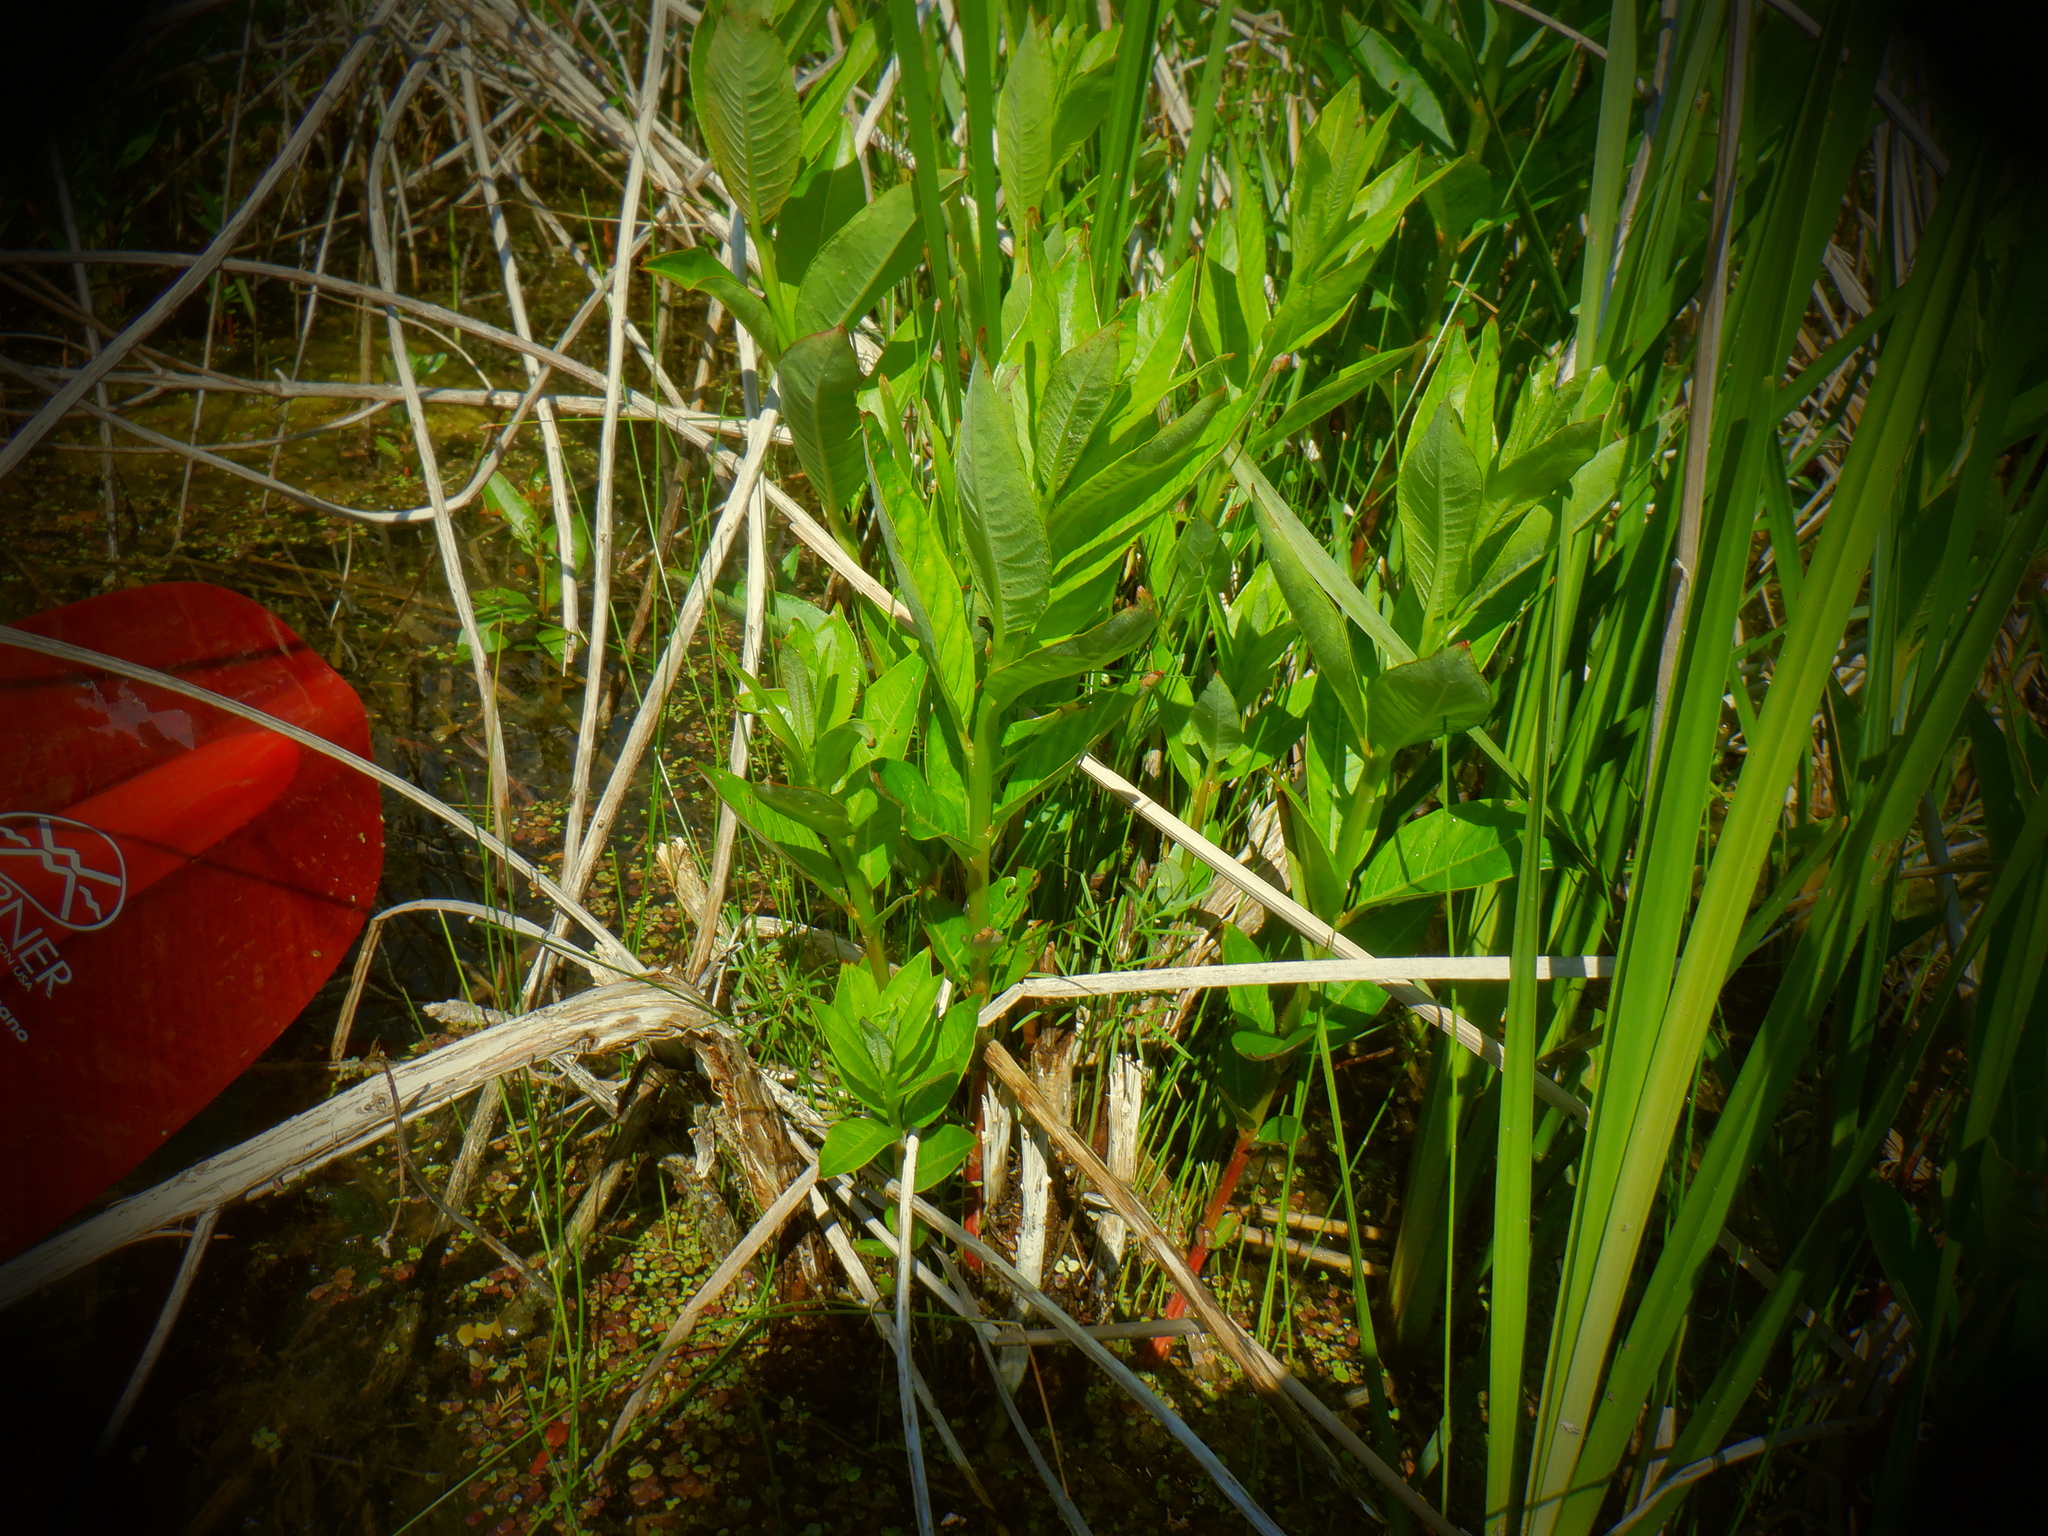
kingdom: Plantae
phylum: Tracheophyta
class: Magnoliopsida
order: Myrtales
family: Lythraceae
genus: Decodon
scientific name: Decodon verticillatus
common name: Hairy swamp loosestrife
